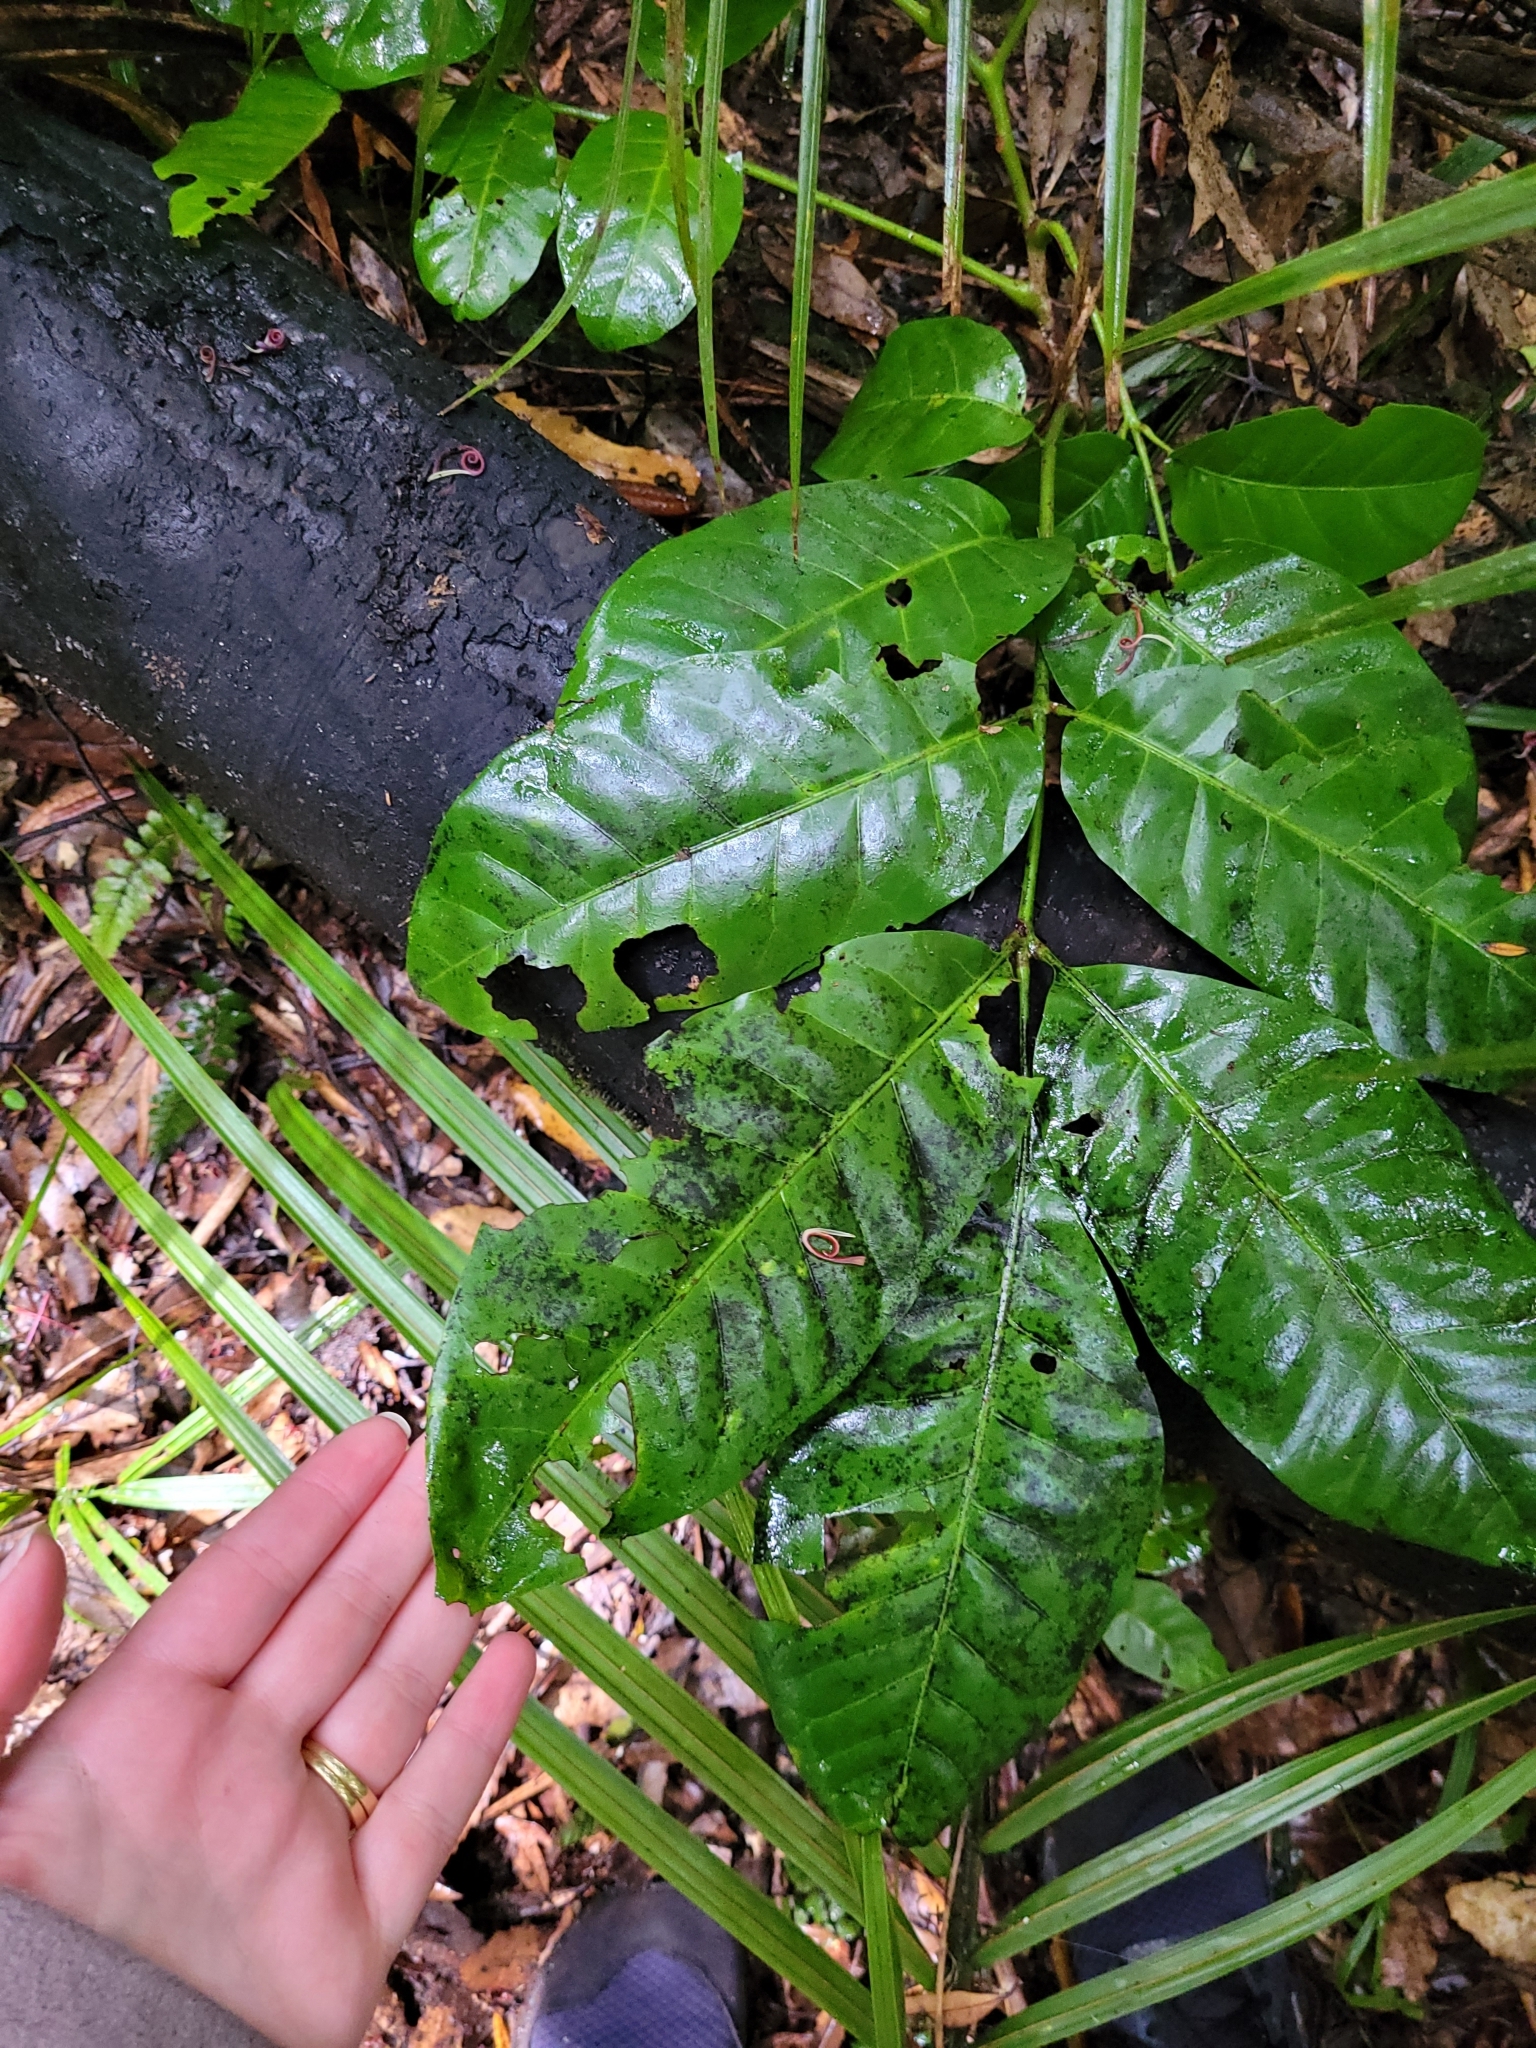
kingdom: Plantae
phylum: Tracheophyta
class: Magnoliopsida
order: Sapindales
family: Meliaceae
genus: Didymocheton
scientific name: Didymocheton spectabilis
